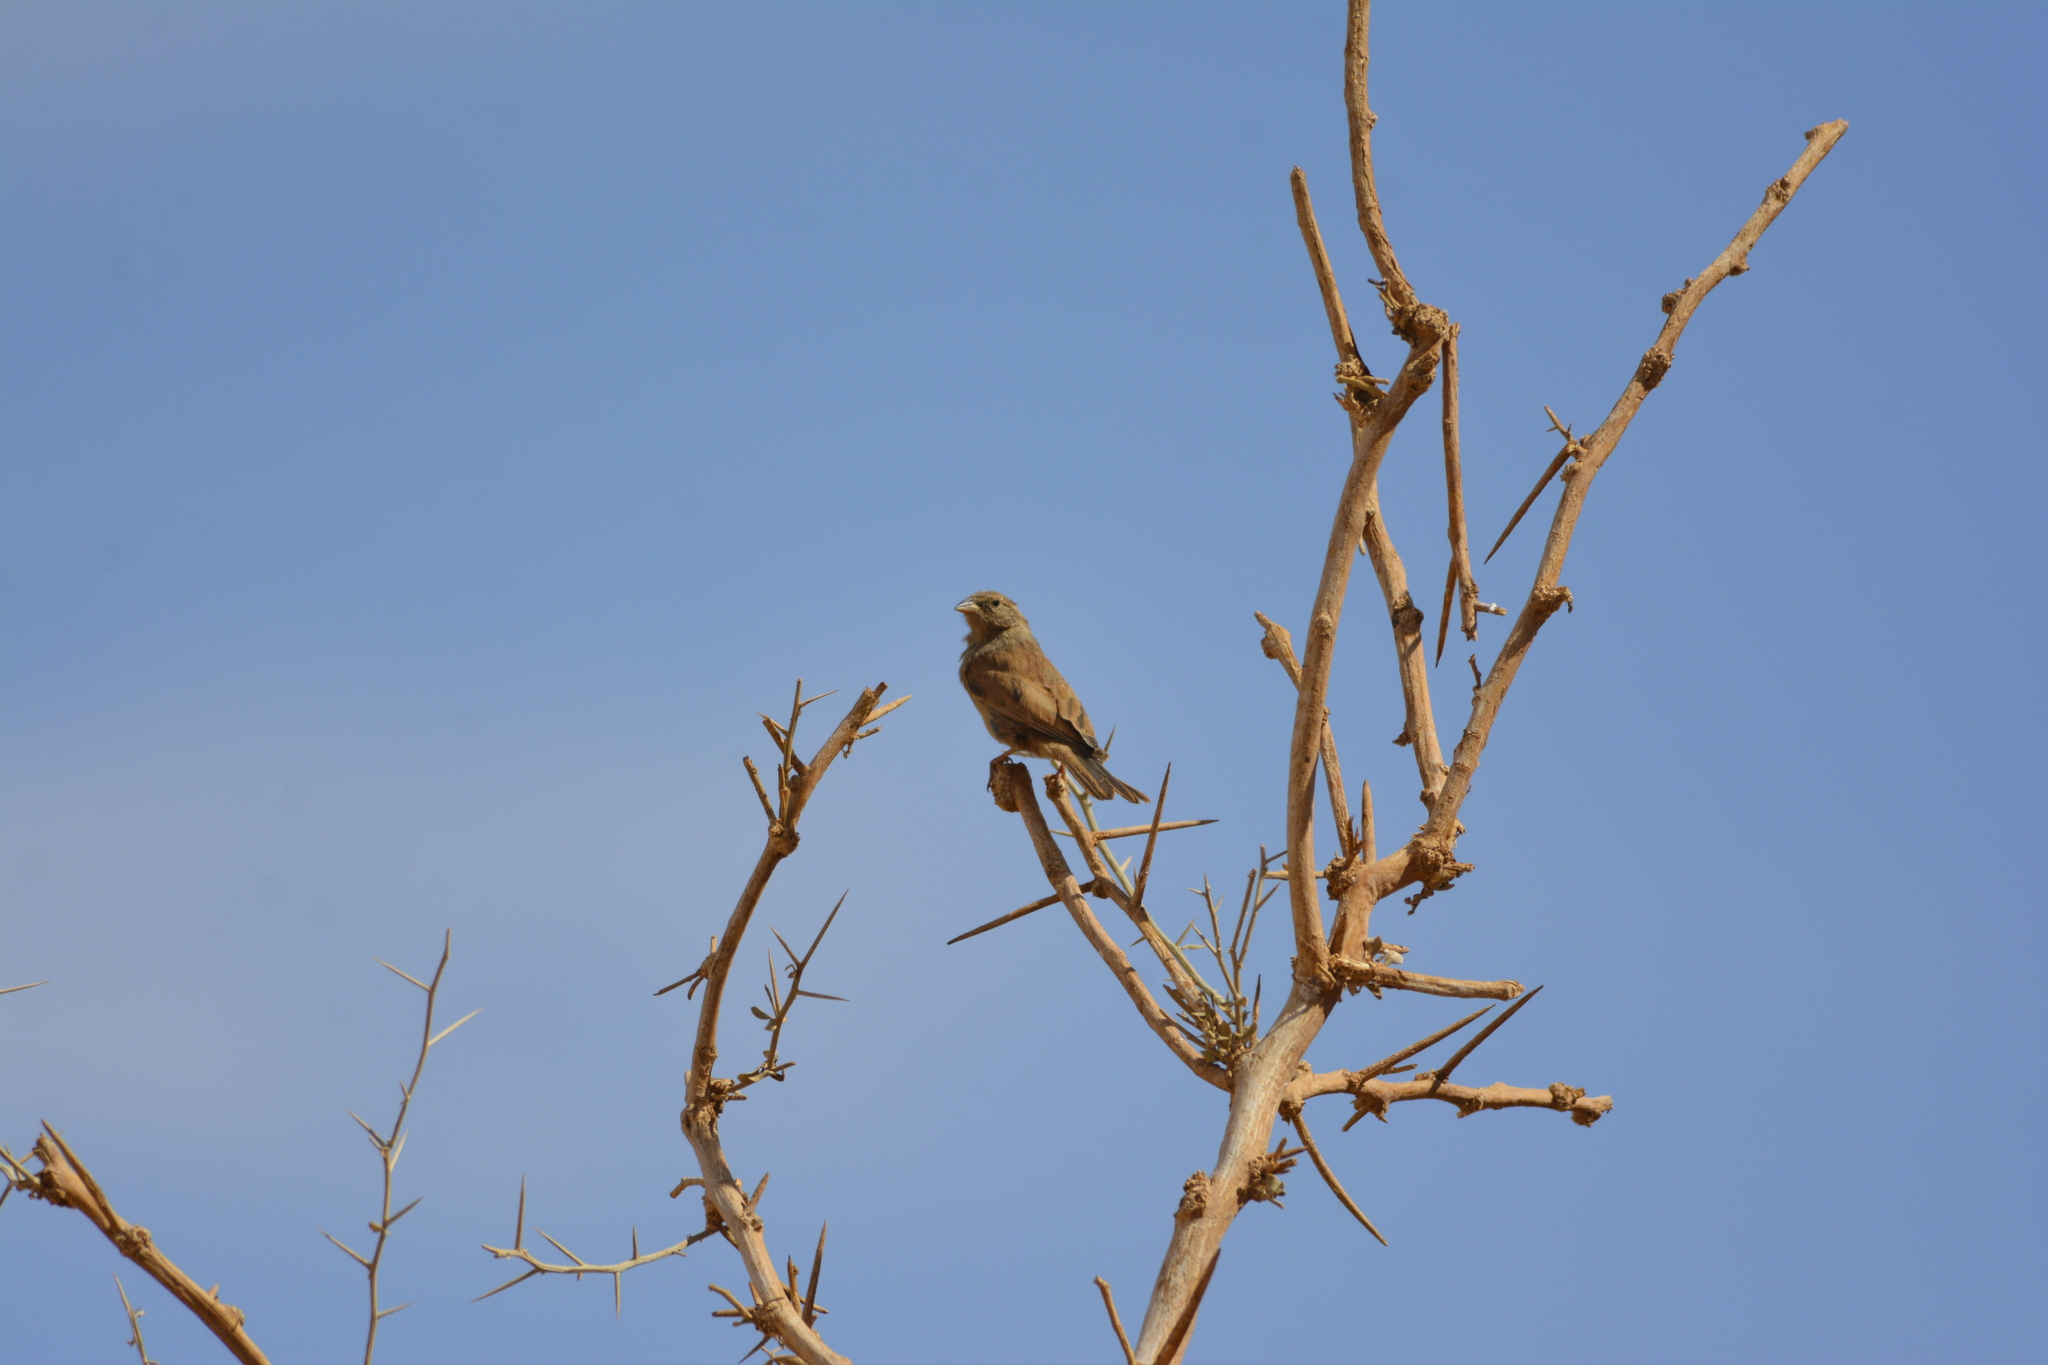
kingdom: Animalia
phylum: Chordata
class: Aves
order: Passeriformes
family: Emberizidae
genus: Emberiza
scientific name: Emberiza sahari
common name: House bunting
